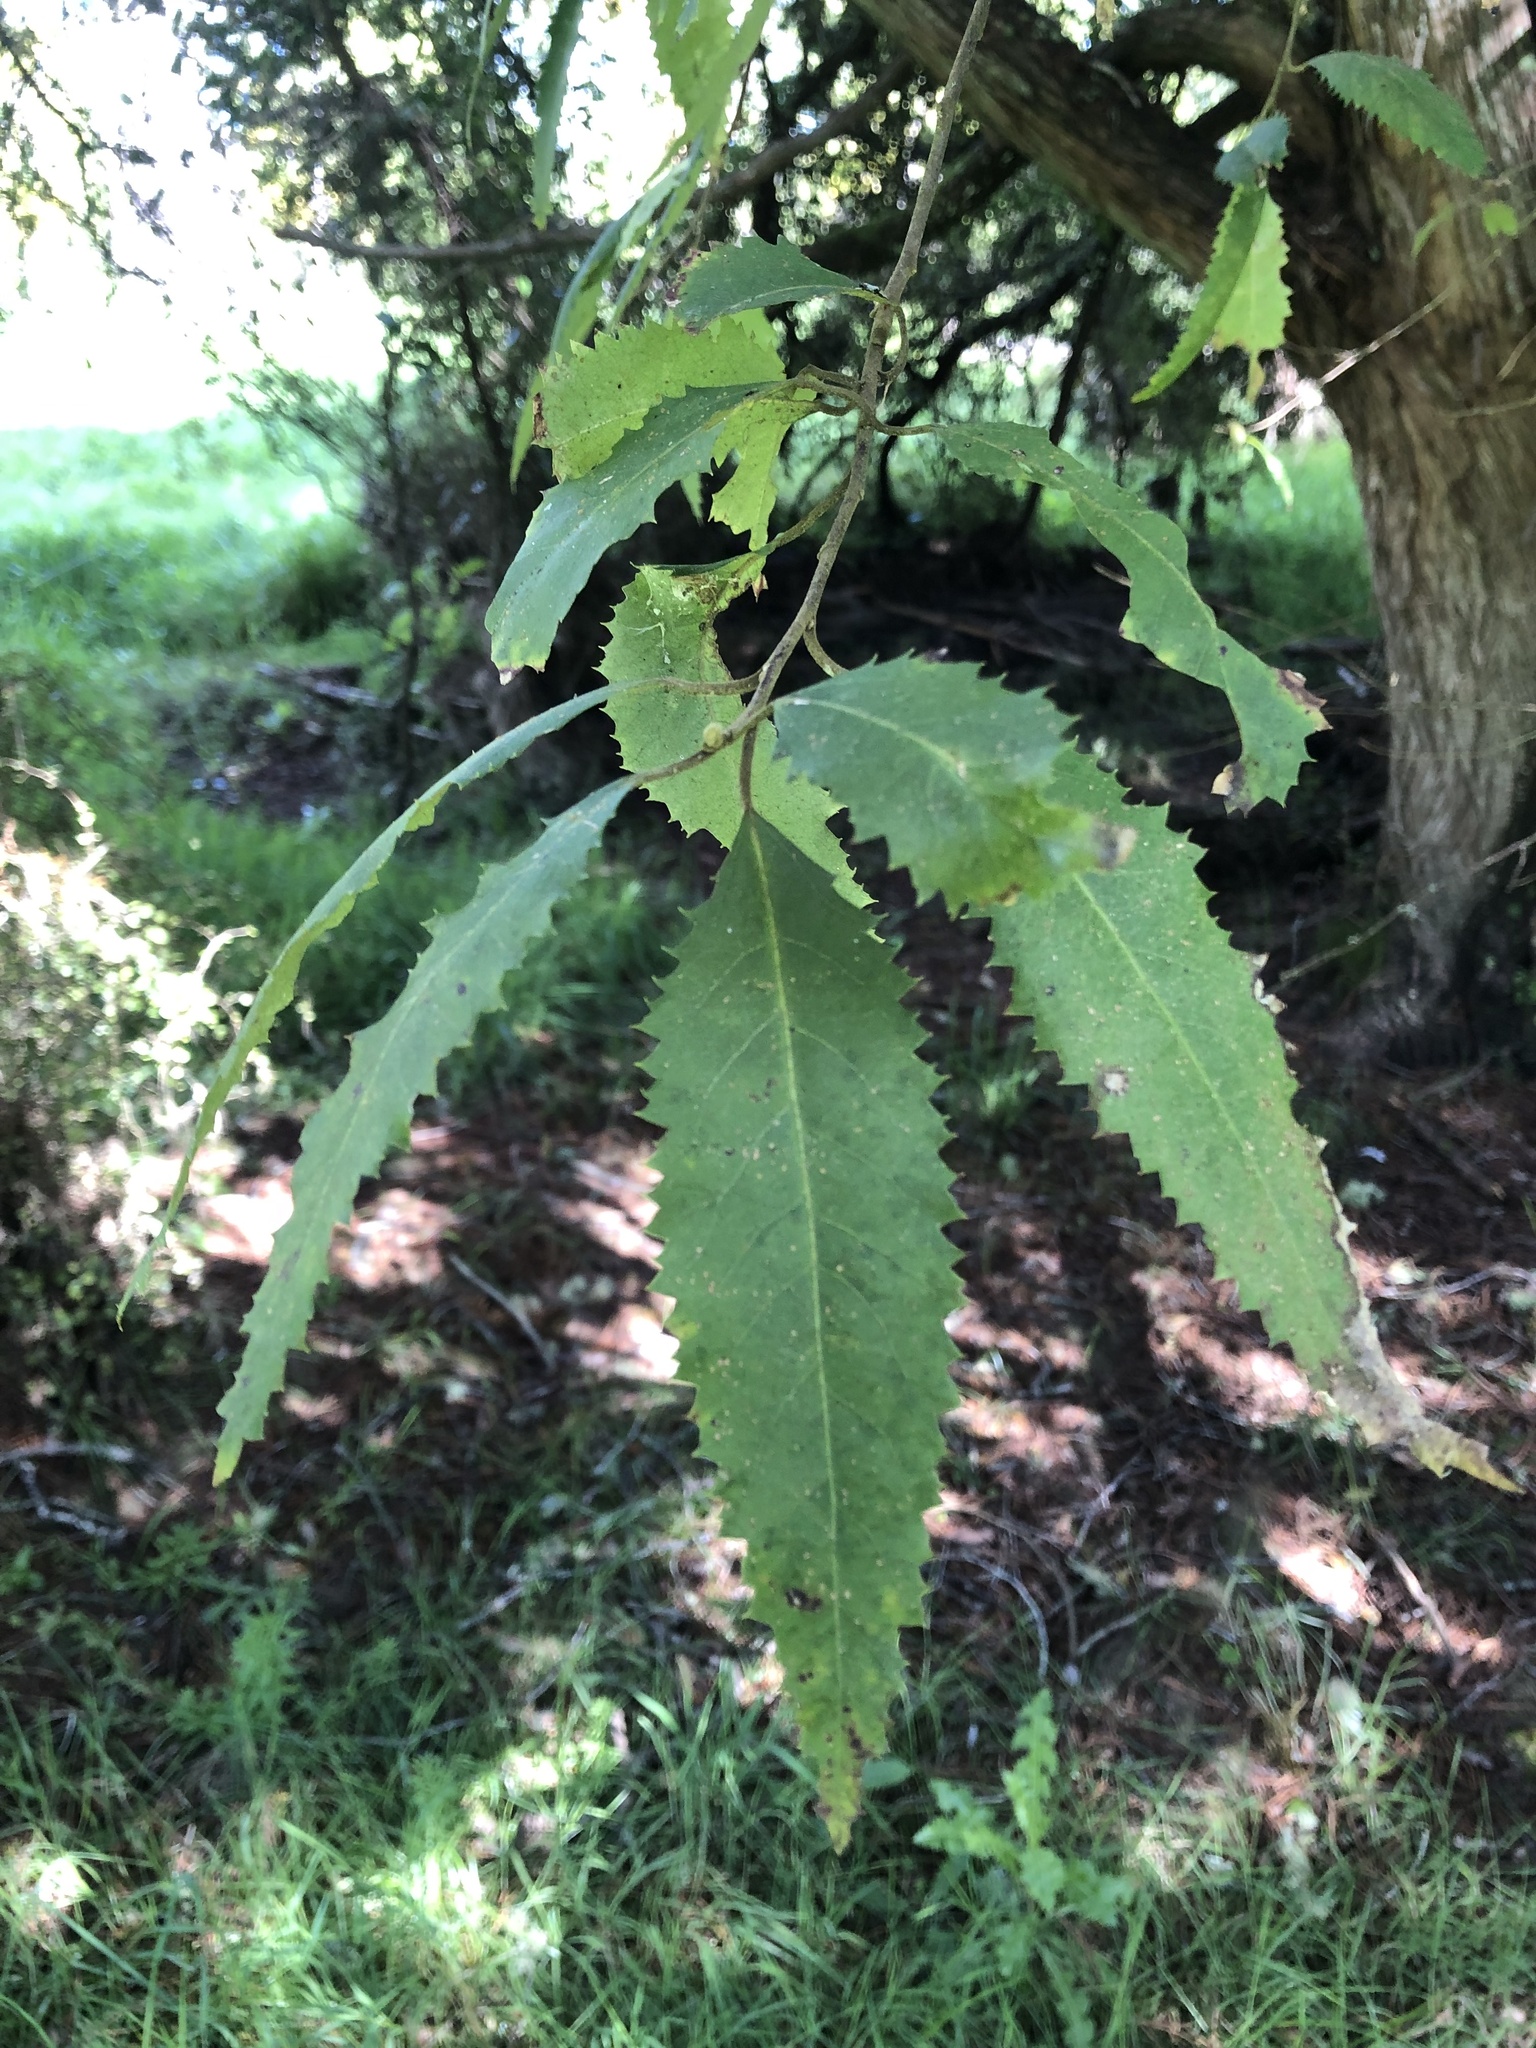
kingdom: Plantae
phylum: Tracheophyta
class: Magnoliopsida
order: Malvales
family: Malvaceae
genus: Hoheria
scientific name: Hoheria sexstylosa
